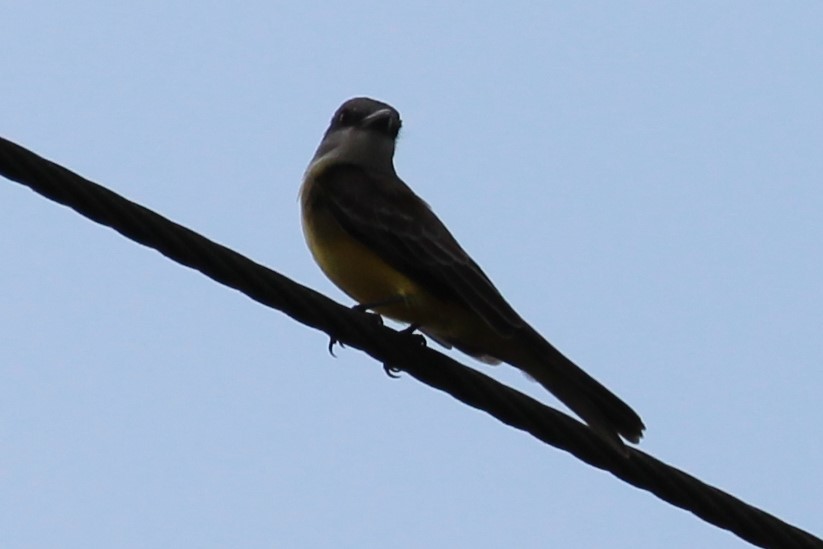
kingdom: Animalia
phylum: Chordata
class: Aves
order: Passeriformes
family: Tyrannidae
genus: Tyrannus
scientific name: Tyrannus melancholicus
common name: Tropical kingbird
